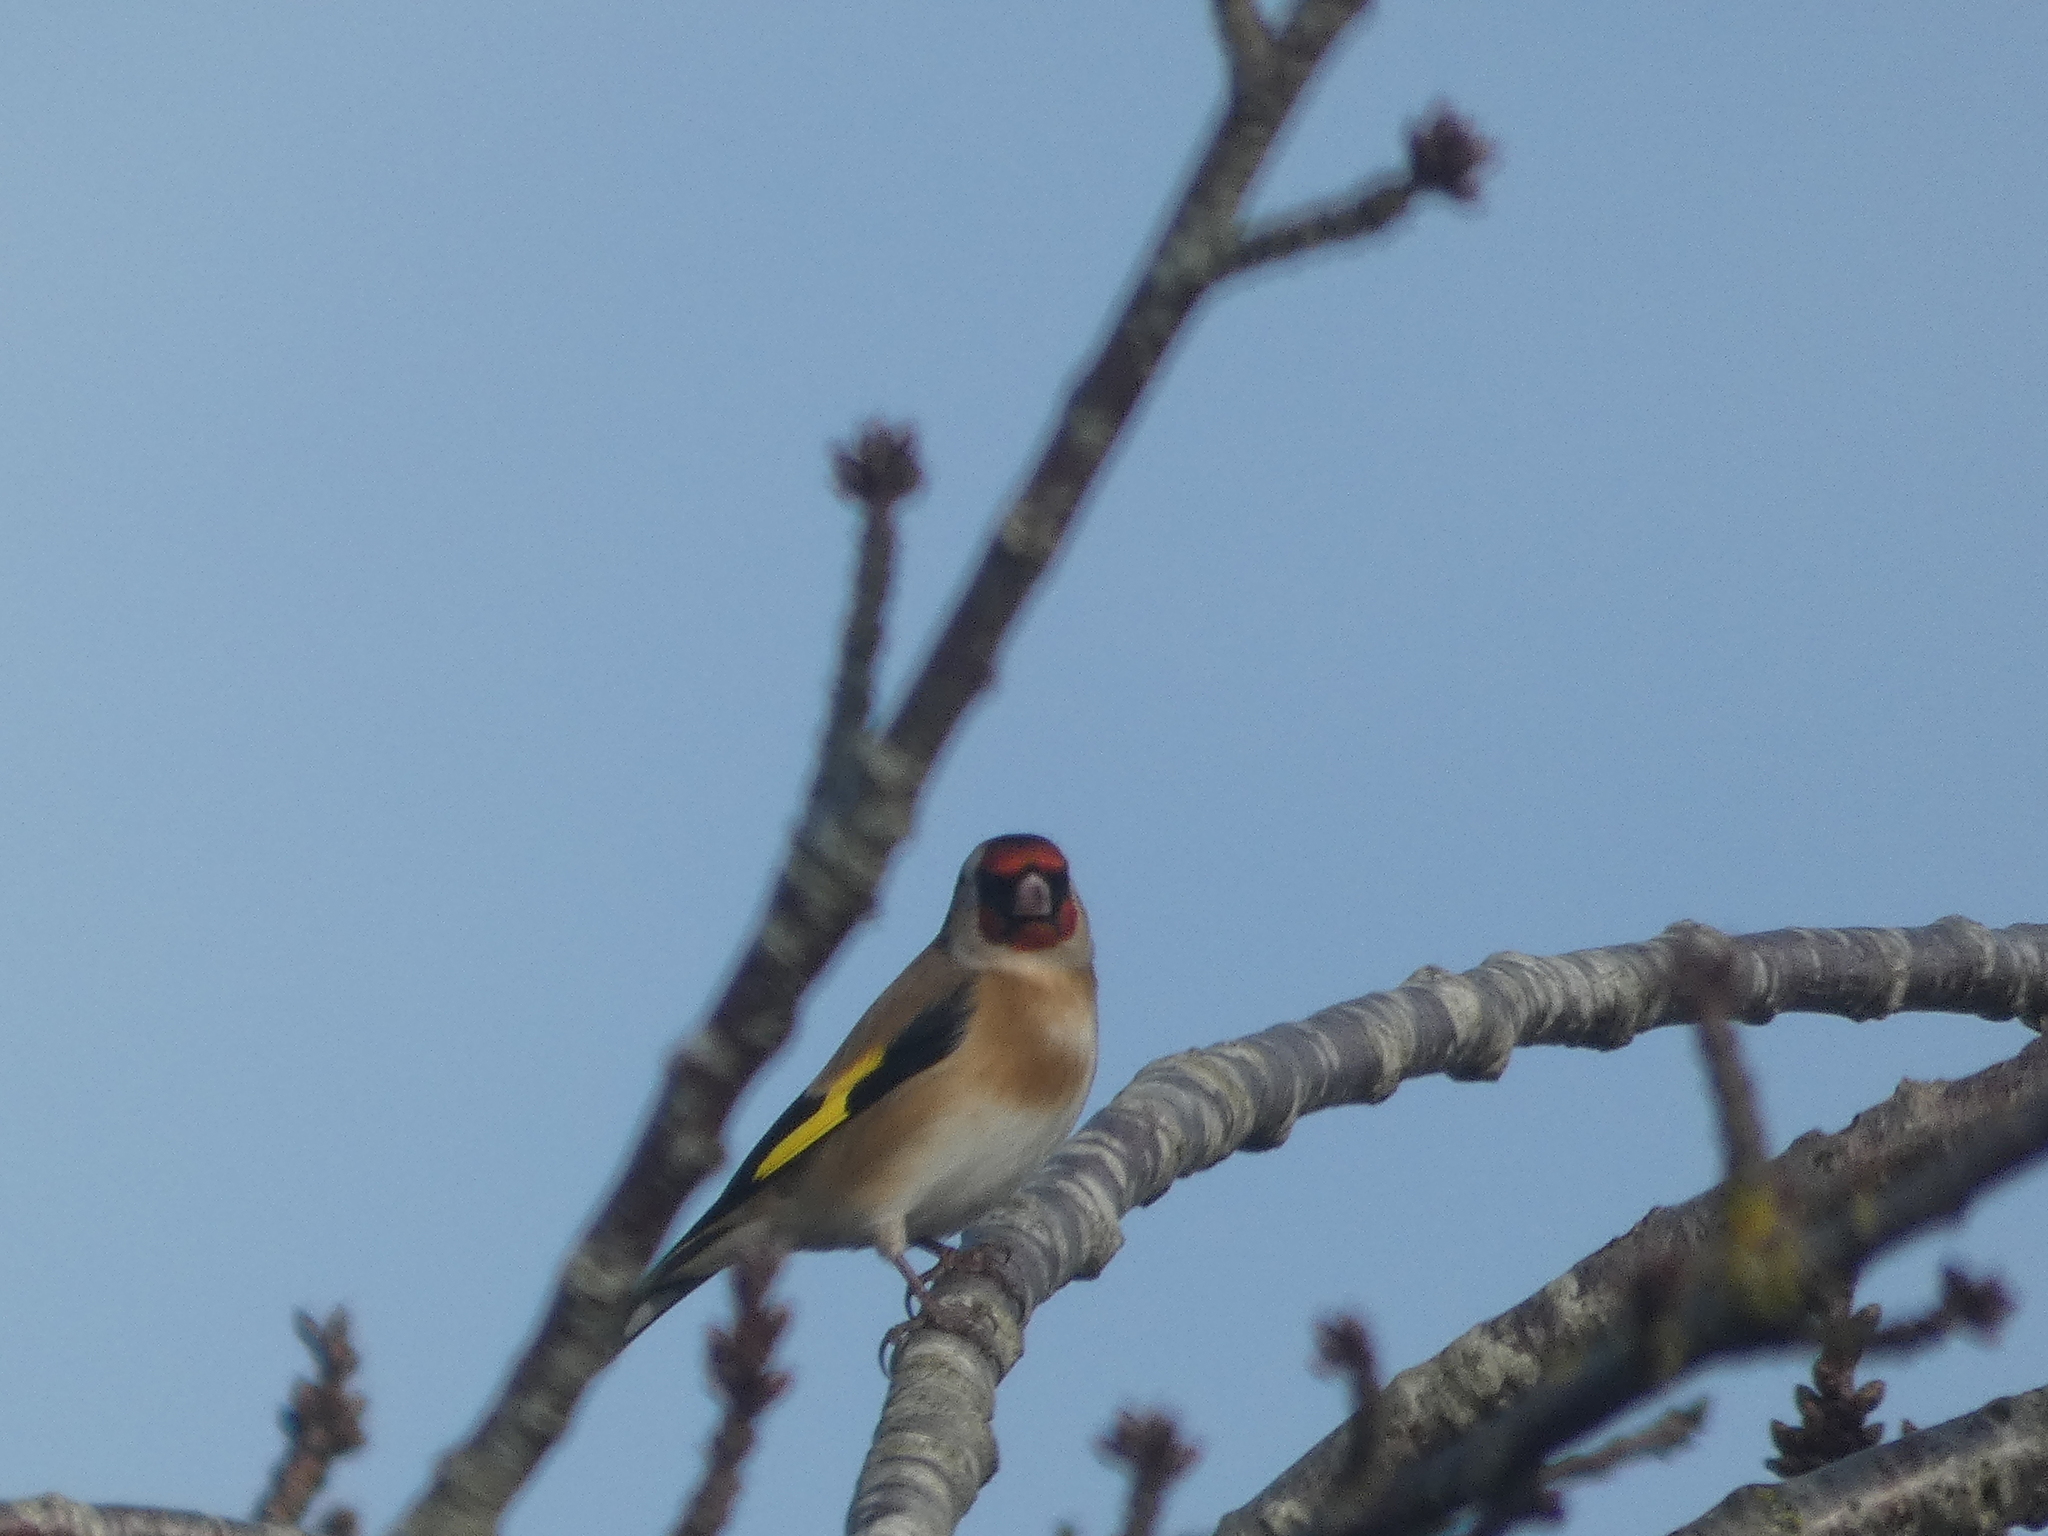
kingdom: Animalia
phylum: Chordata
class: Aves
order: Passeriformes
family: Fringillidae
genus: Carduelis
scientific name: Carduelis carduelis
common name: European goldfinch
